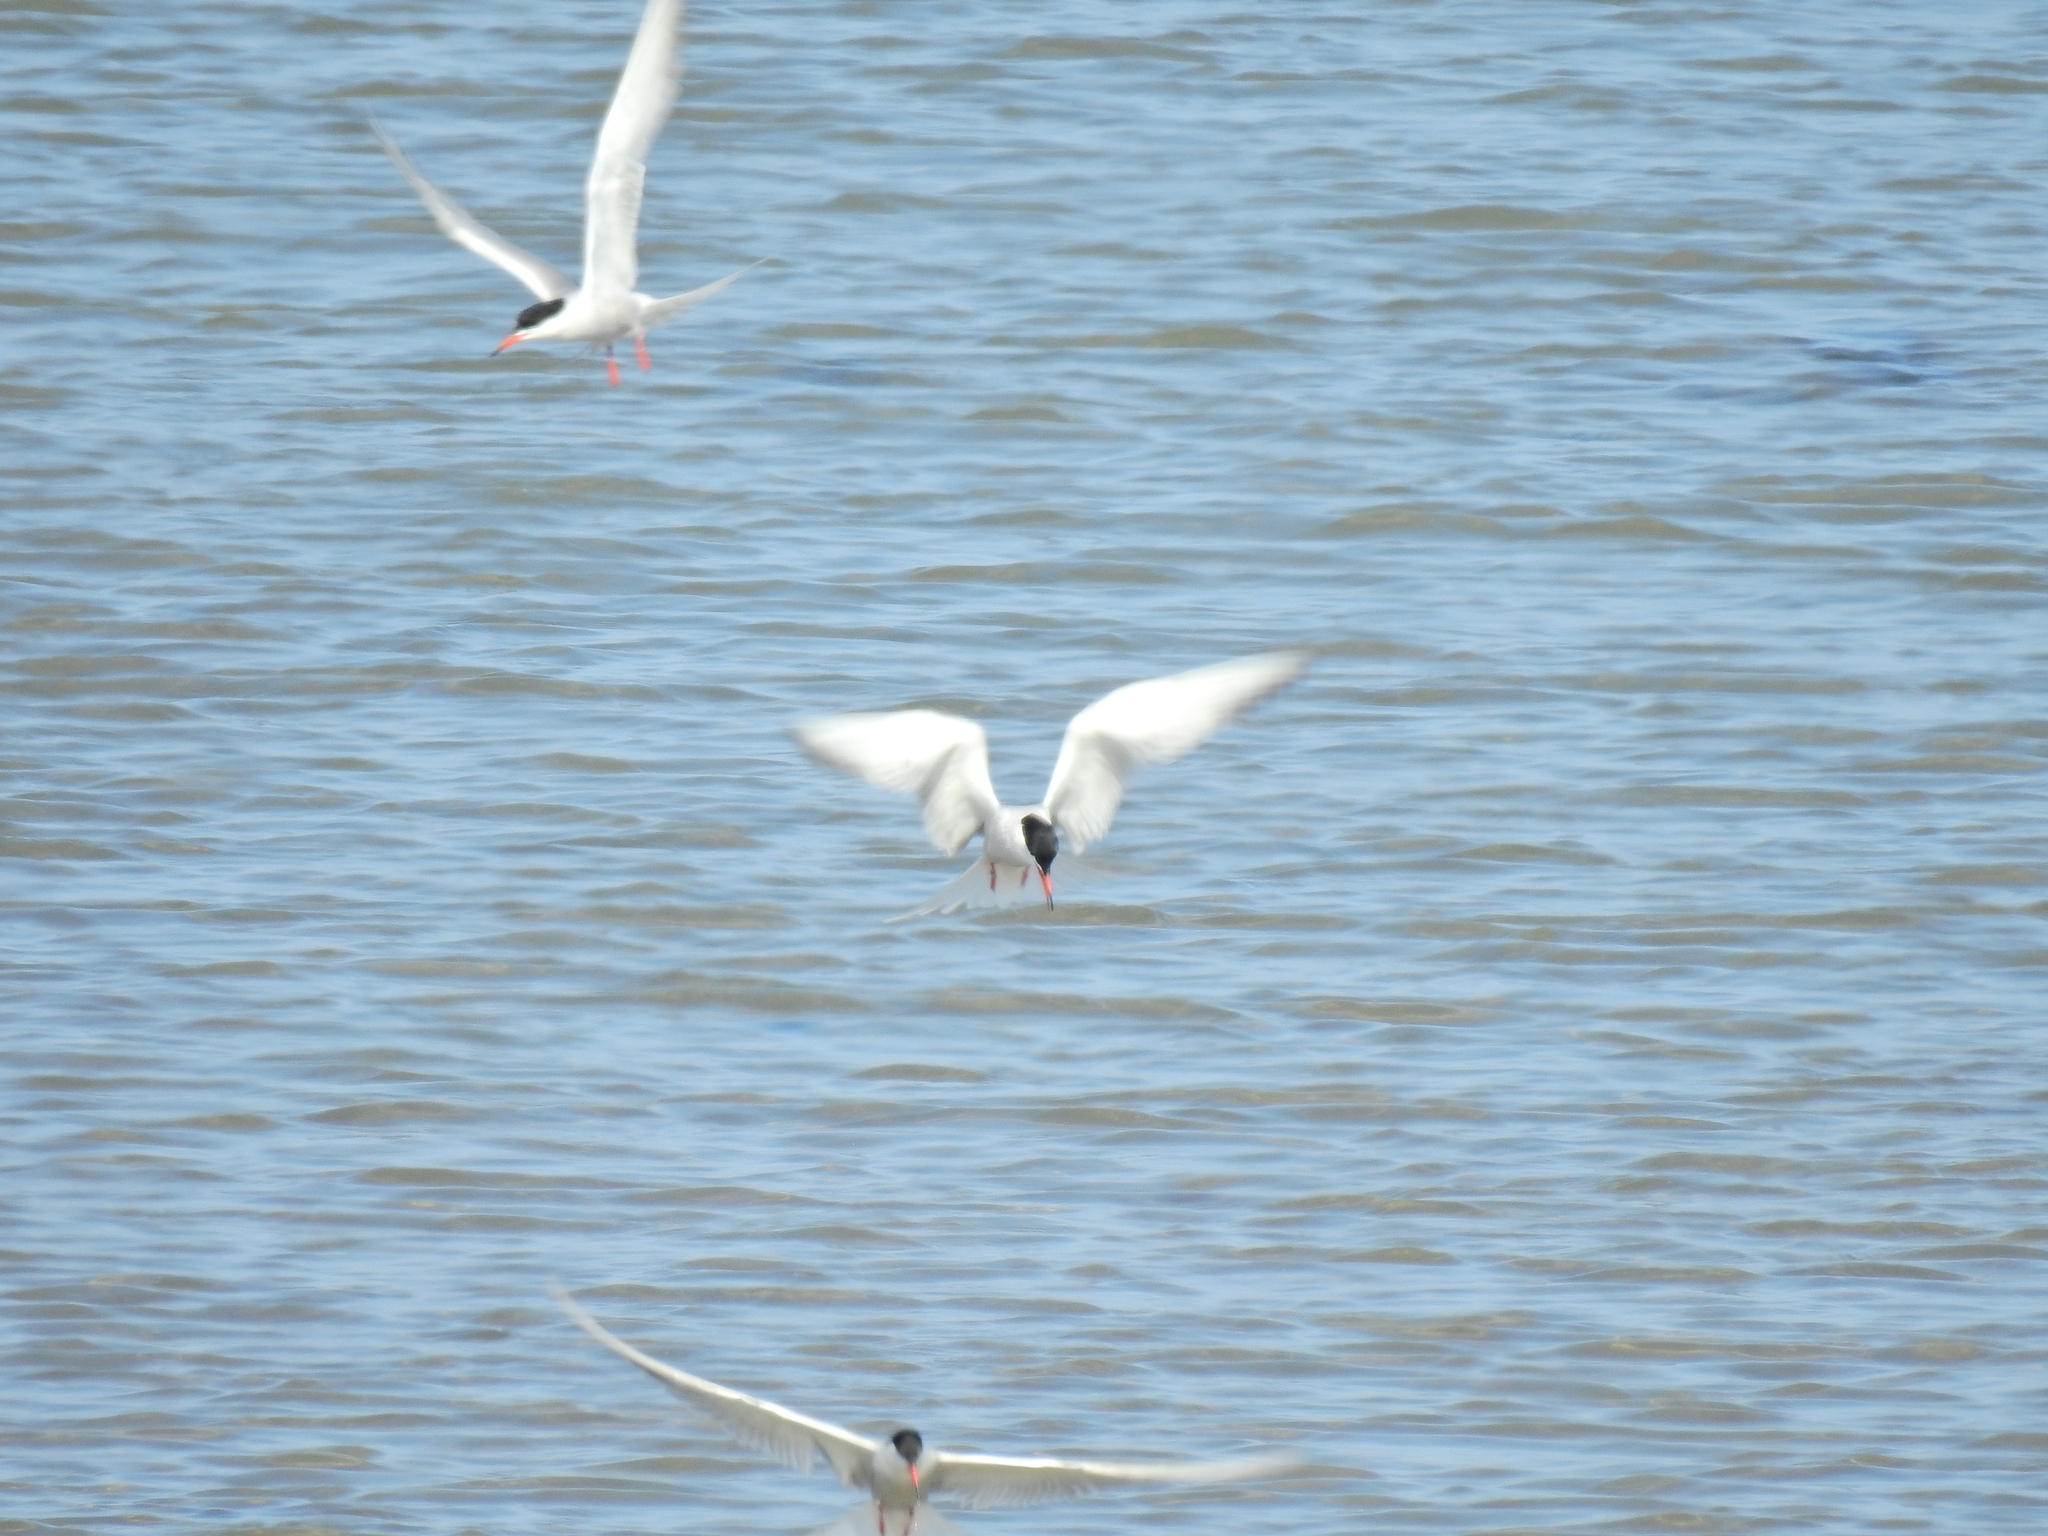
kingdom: Animalia
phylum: Chordata
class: Aves
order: Charadriiformes
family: Laridae
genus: Sterna
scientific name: Sterna hirundo
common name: Common tern
